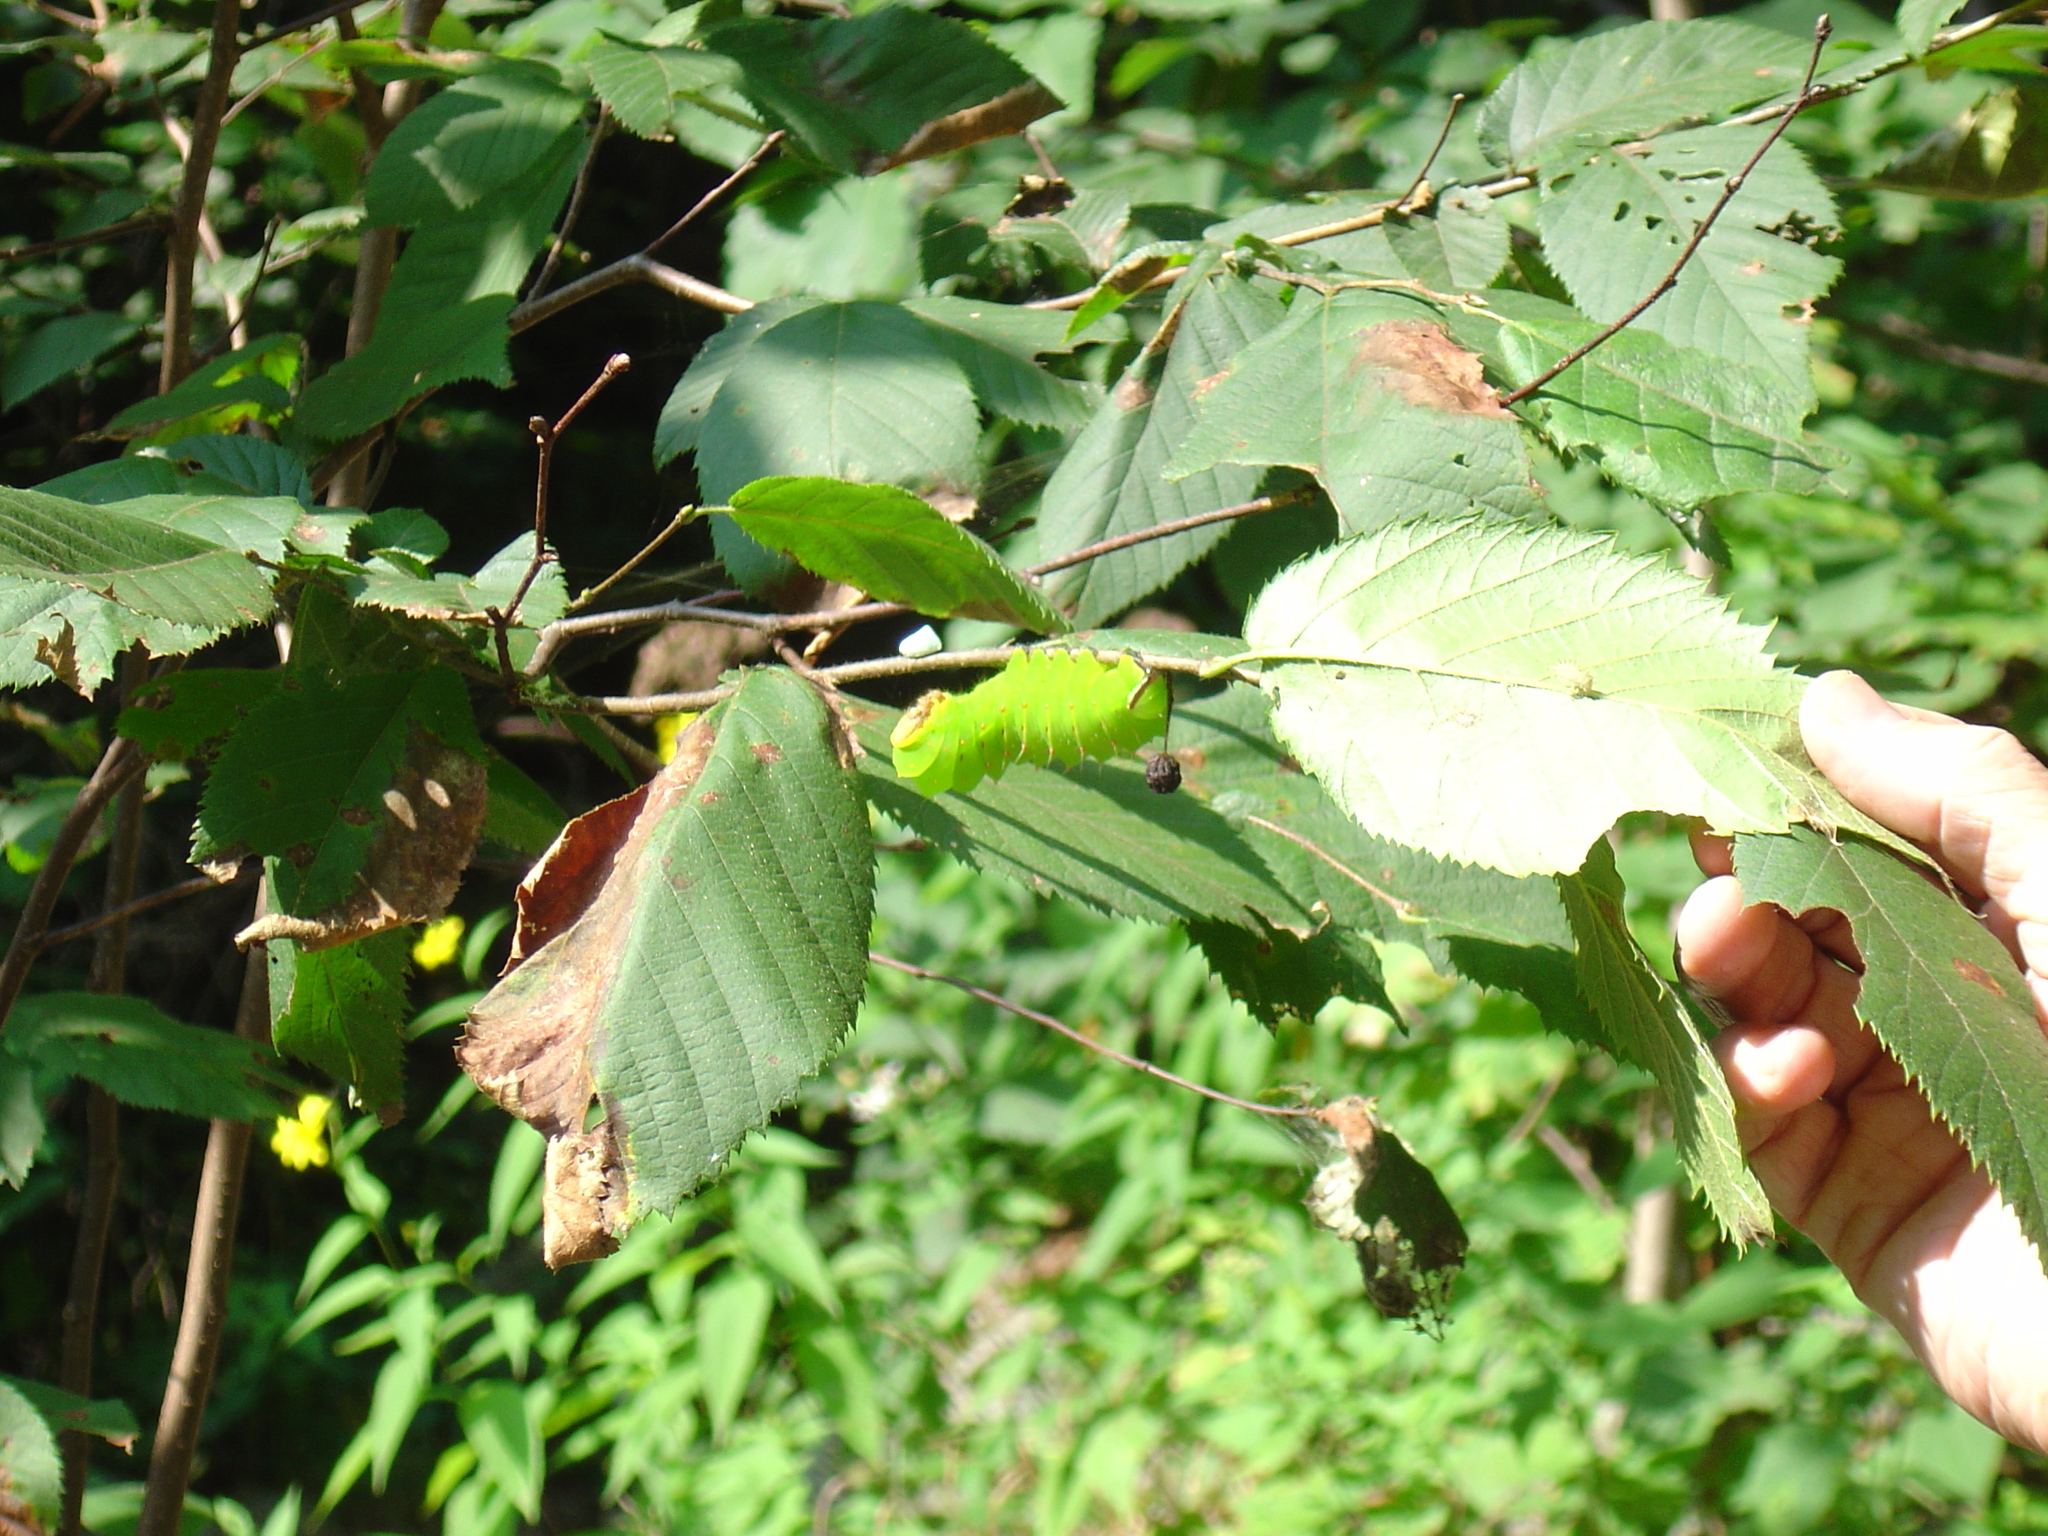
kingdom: Animalia
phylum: Arthropoda
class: Insecta
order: Lepidoptera
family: Saturniidae
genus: Antheraea
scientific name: Antheraea polyphemus
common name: Polyphemus moth
